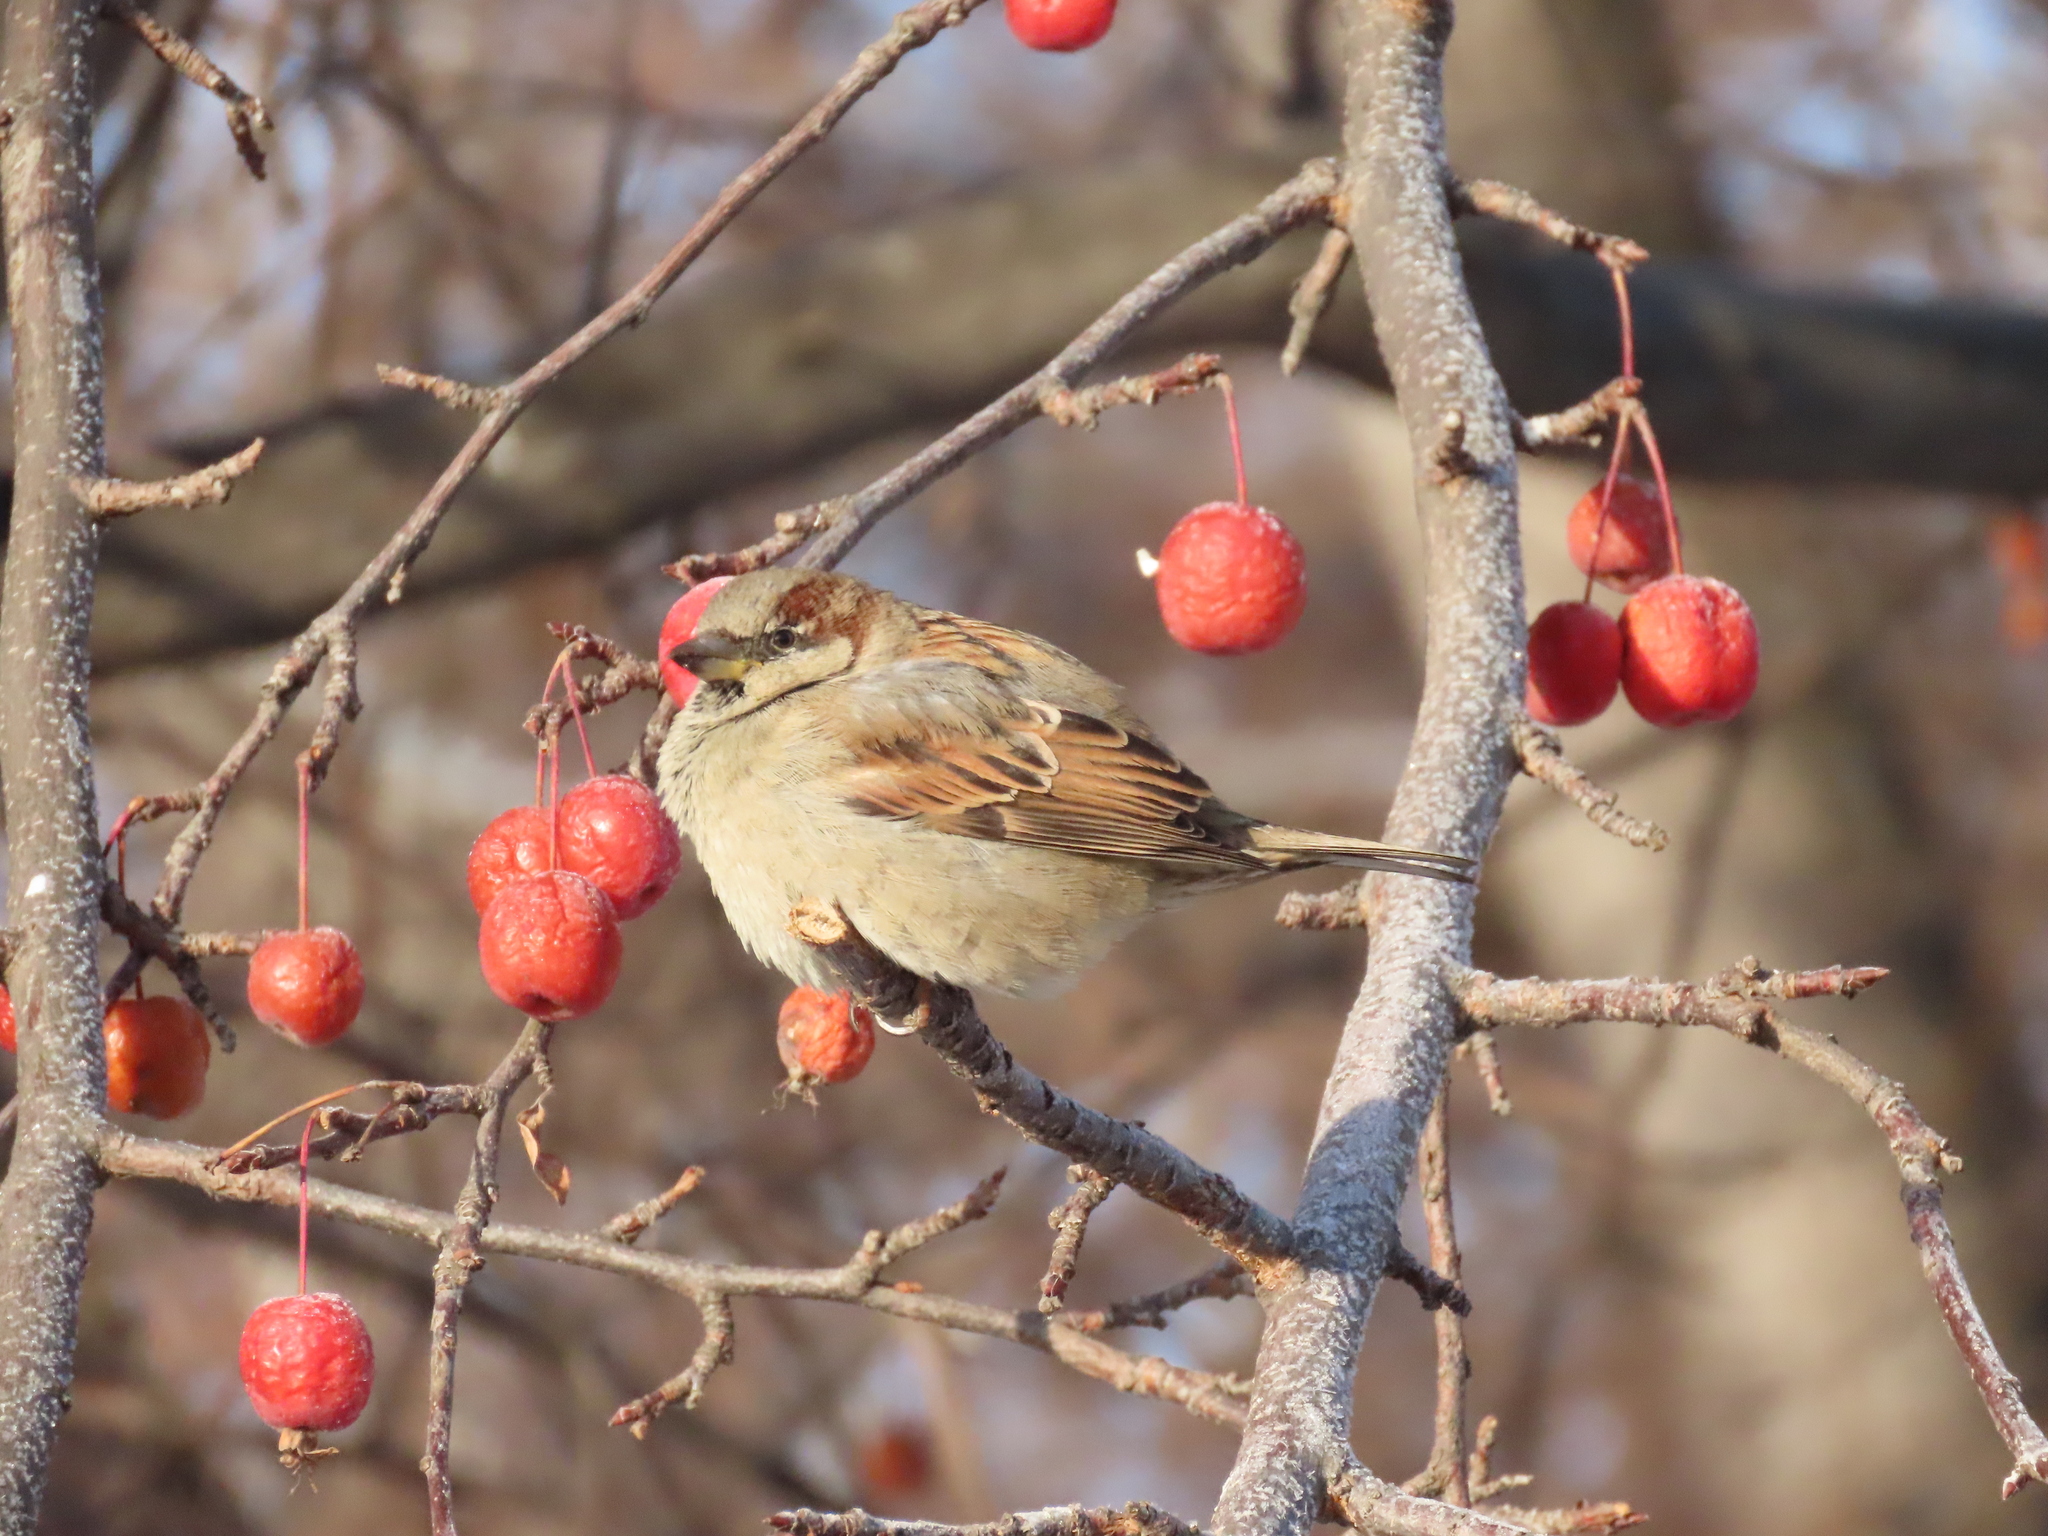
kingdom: Animalia
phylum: Chordata
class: Aves
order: Passeriformes
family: Passeridae
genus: Passer
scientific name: Passer domesticus
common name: House sparrow
